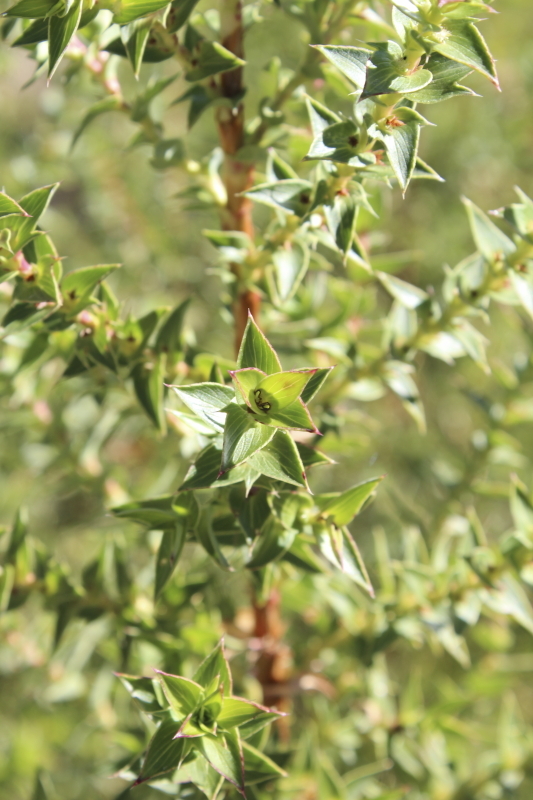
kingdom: Plantae
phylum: Tracheophyta
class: Magnoliopsida
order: Rosales
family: Rosaceae
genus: Cliffortia
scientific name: Cliffortia ilicifolia
